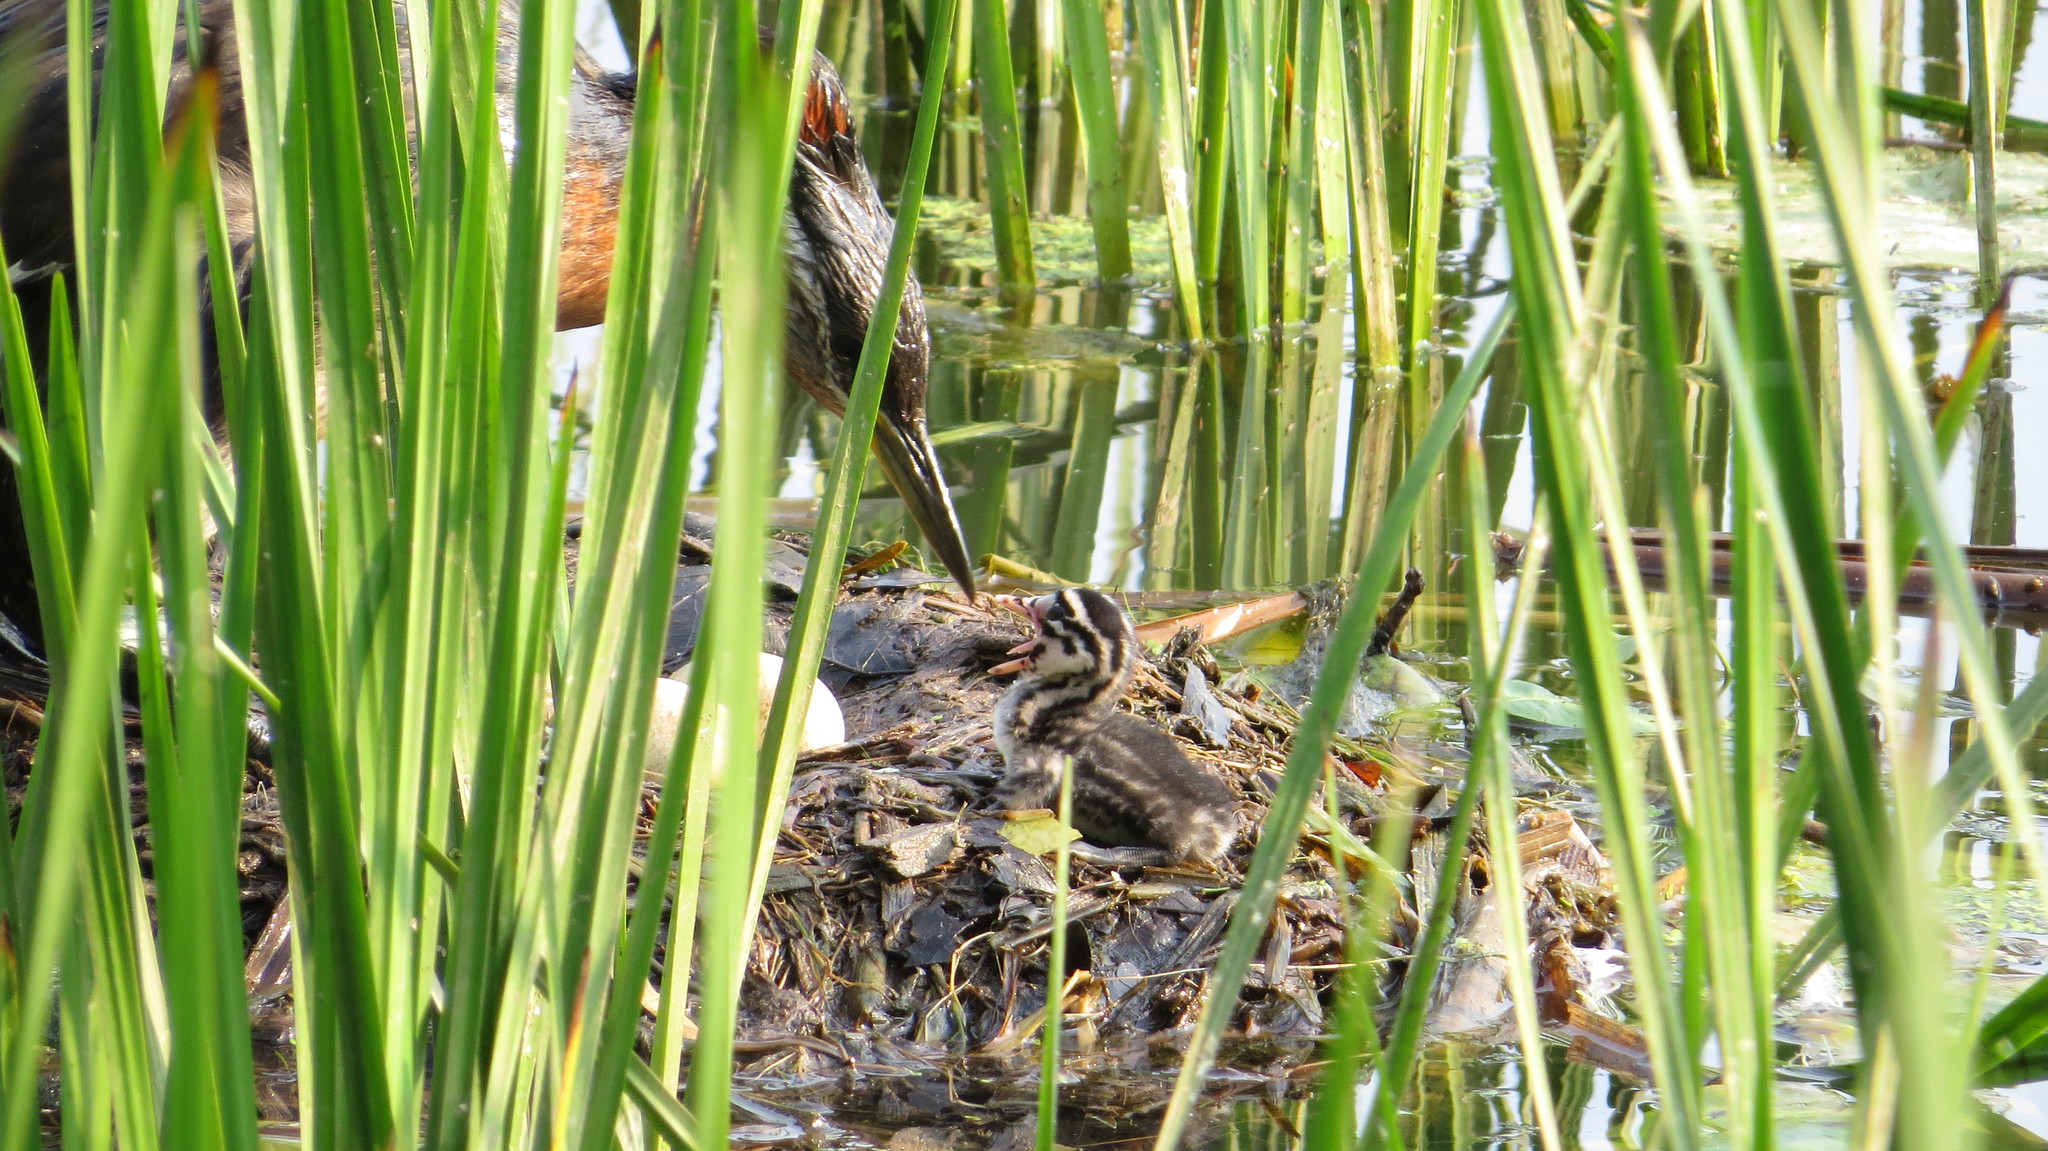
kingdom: Animalia
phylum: Chordata
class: Aves
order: Podicipediformes
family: Podicipedidae
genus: Podiceps
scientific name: Podiceps grisegena
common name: Red-necked grebe
